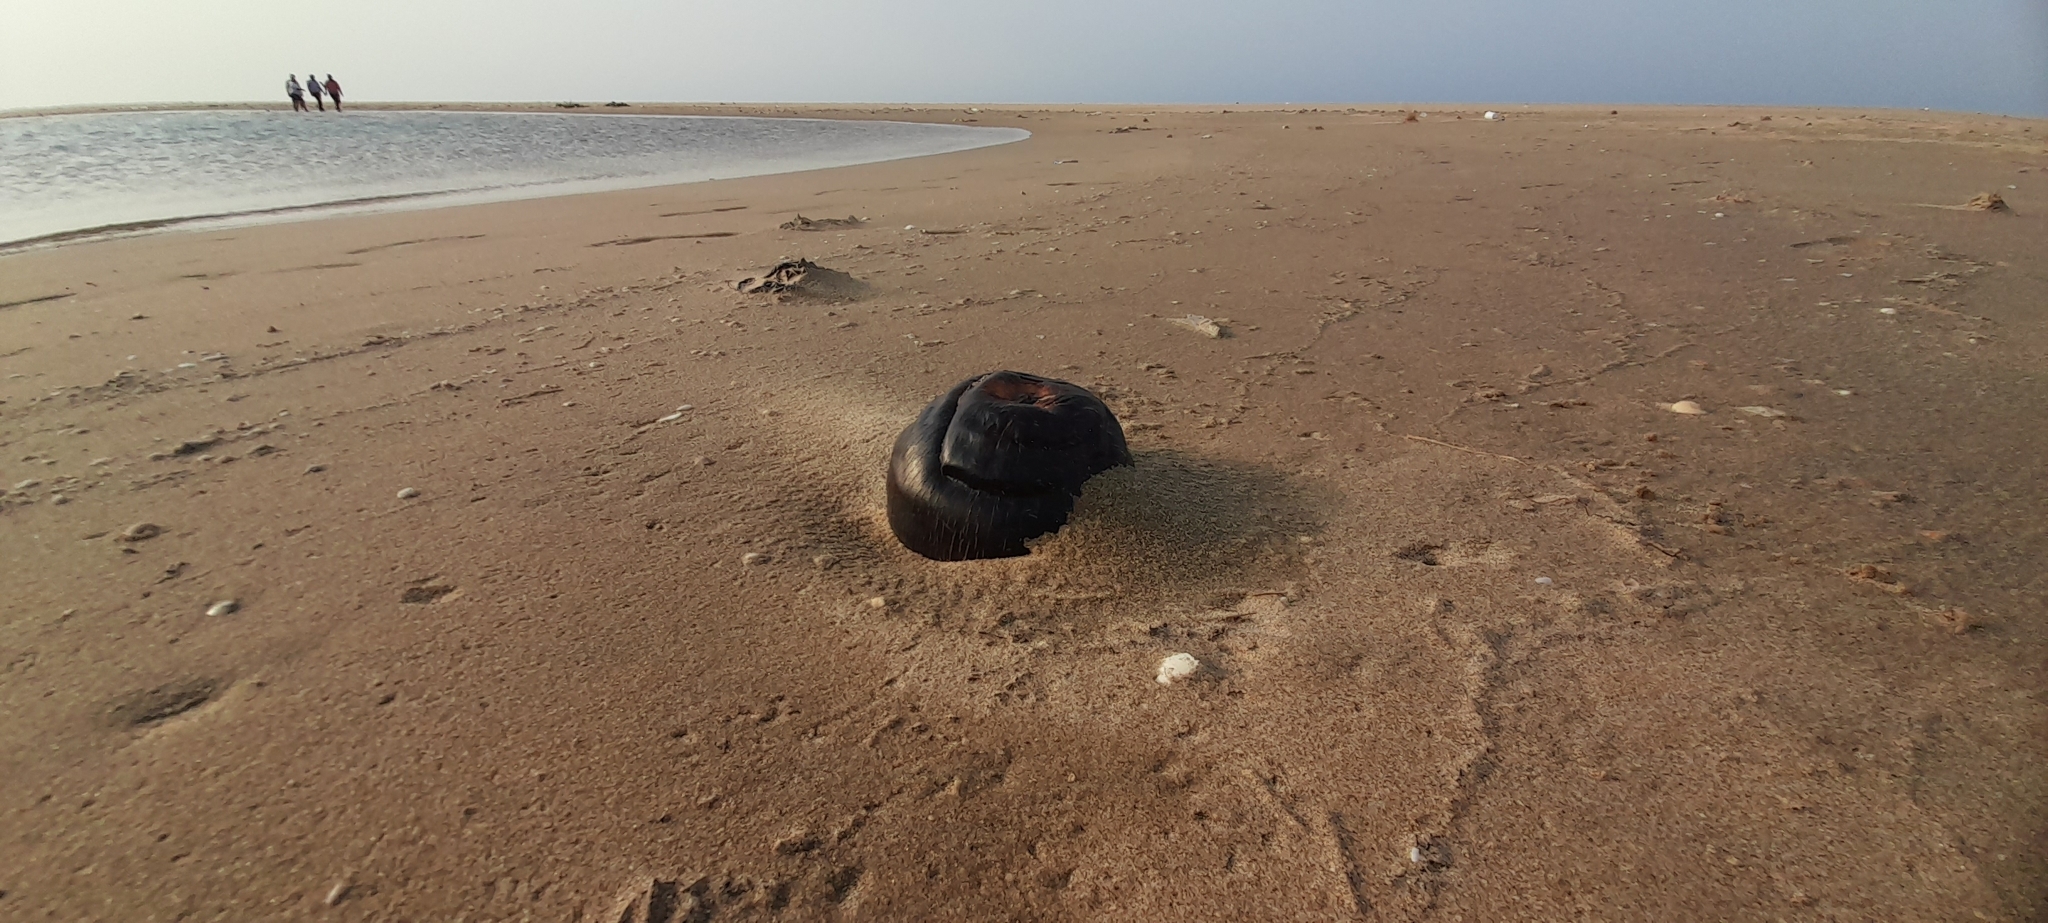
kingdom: Plantae
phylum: Tracheophyta
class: Liliopsida
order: Arecales
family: Arecaceae
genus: Borassus
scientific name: Borassus flabellifer
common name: Palmyra palm
